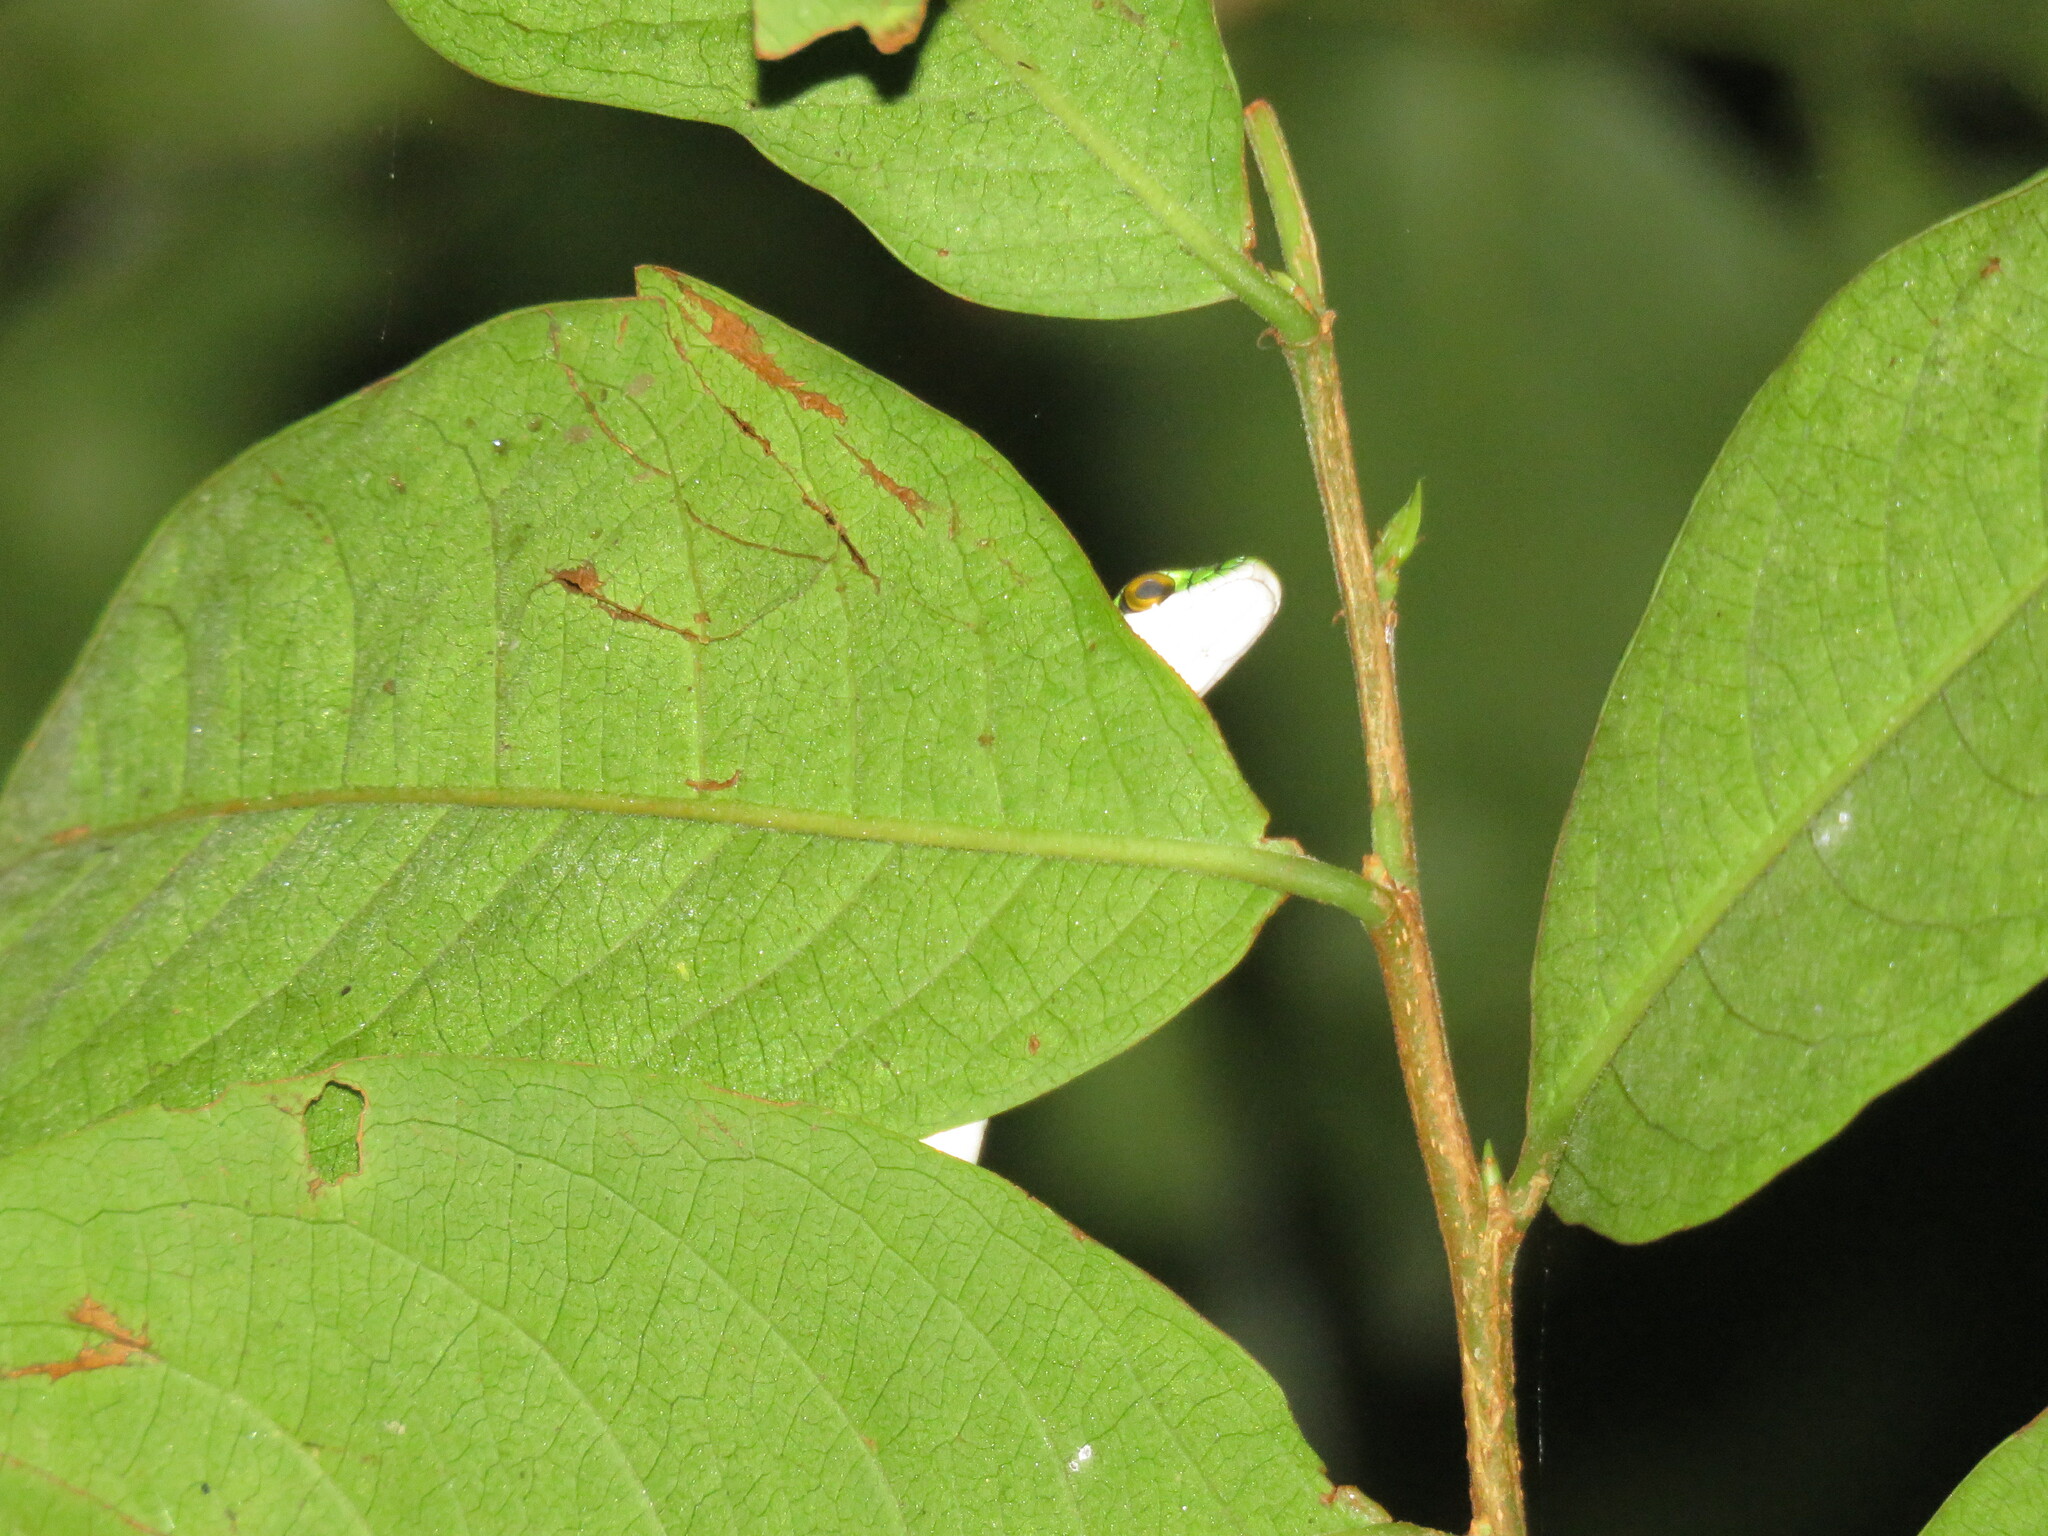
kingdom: Animalia
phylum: Chordata
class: Squamata
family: Colubridae
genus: Leptophis
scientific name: Leptophis ahaetulla
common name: Parrot snake
